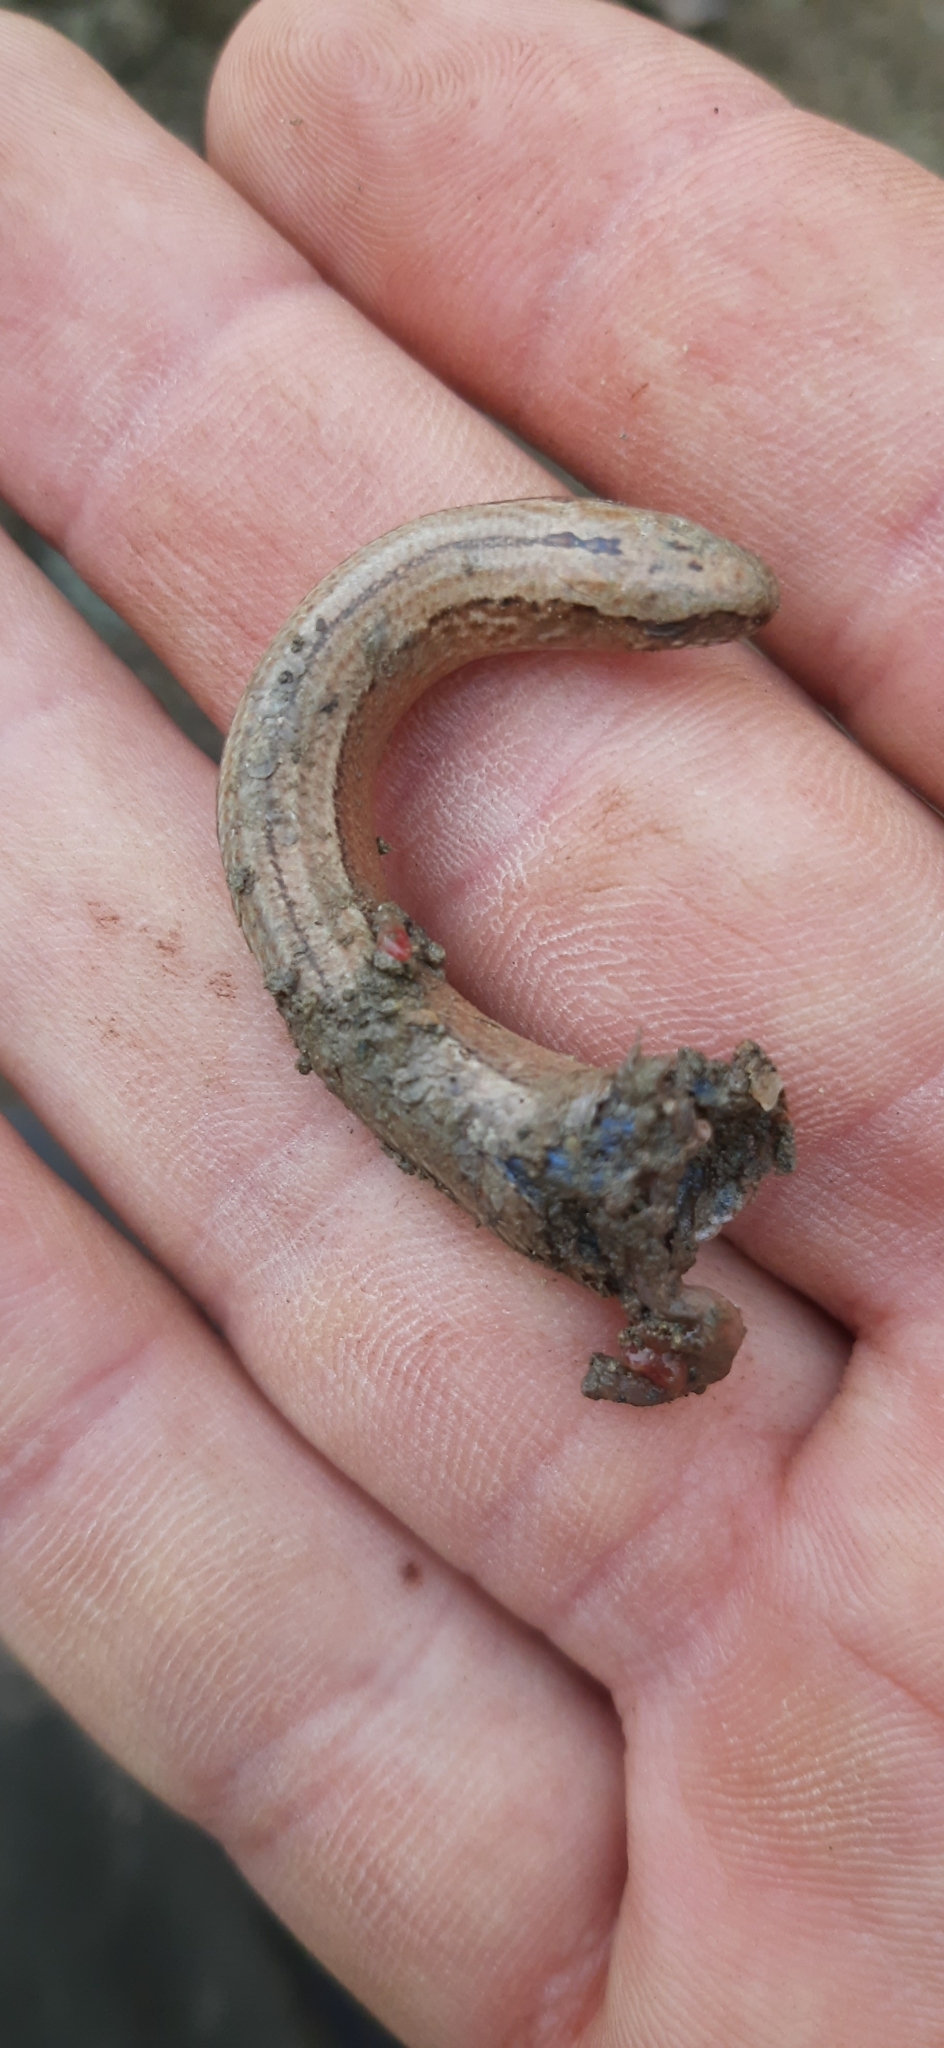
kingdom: Animalia
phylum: Chordata
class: Squamata
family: Anguidae
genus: Anguis
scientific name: Anguis fragilis
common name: Slow worm
